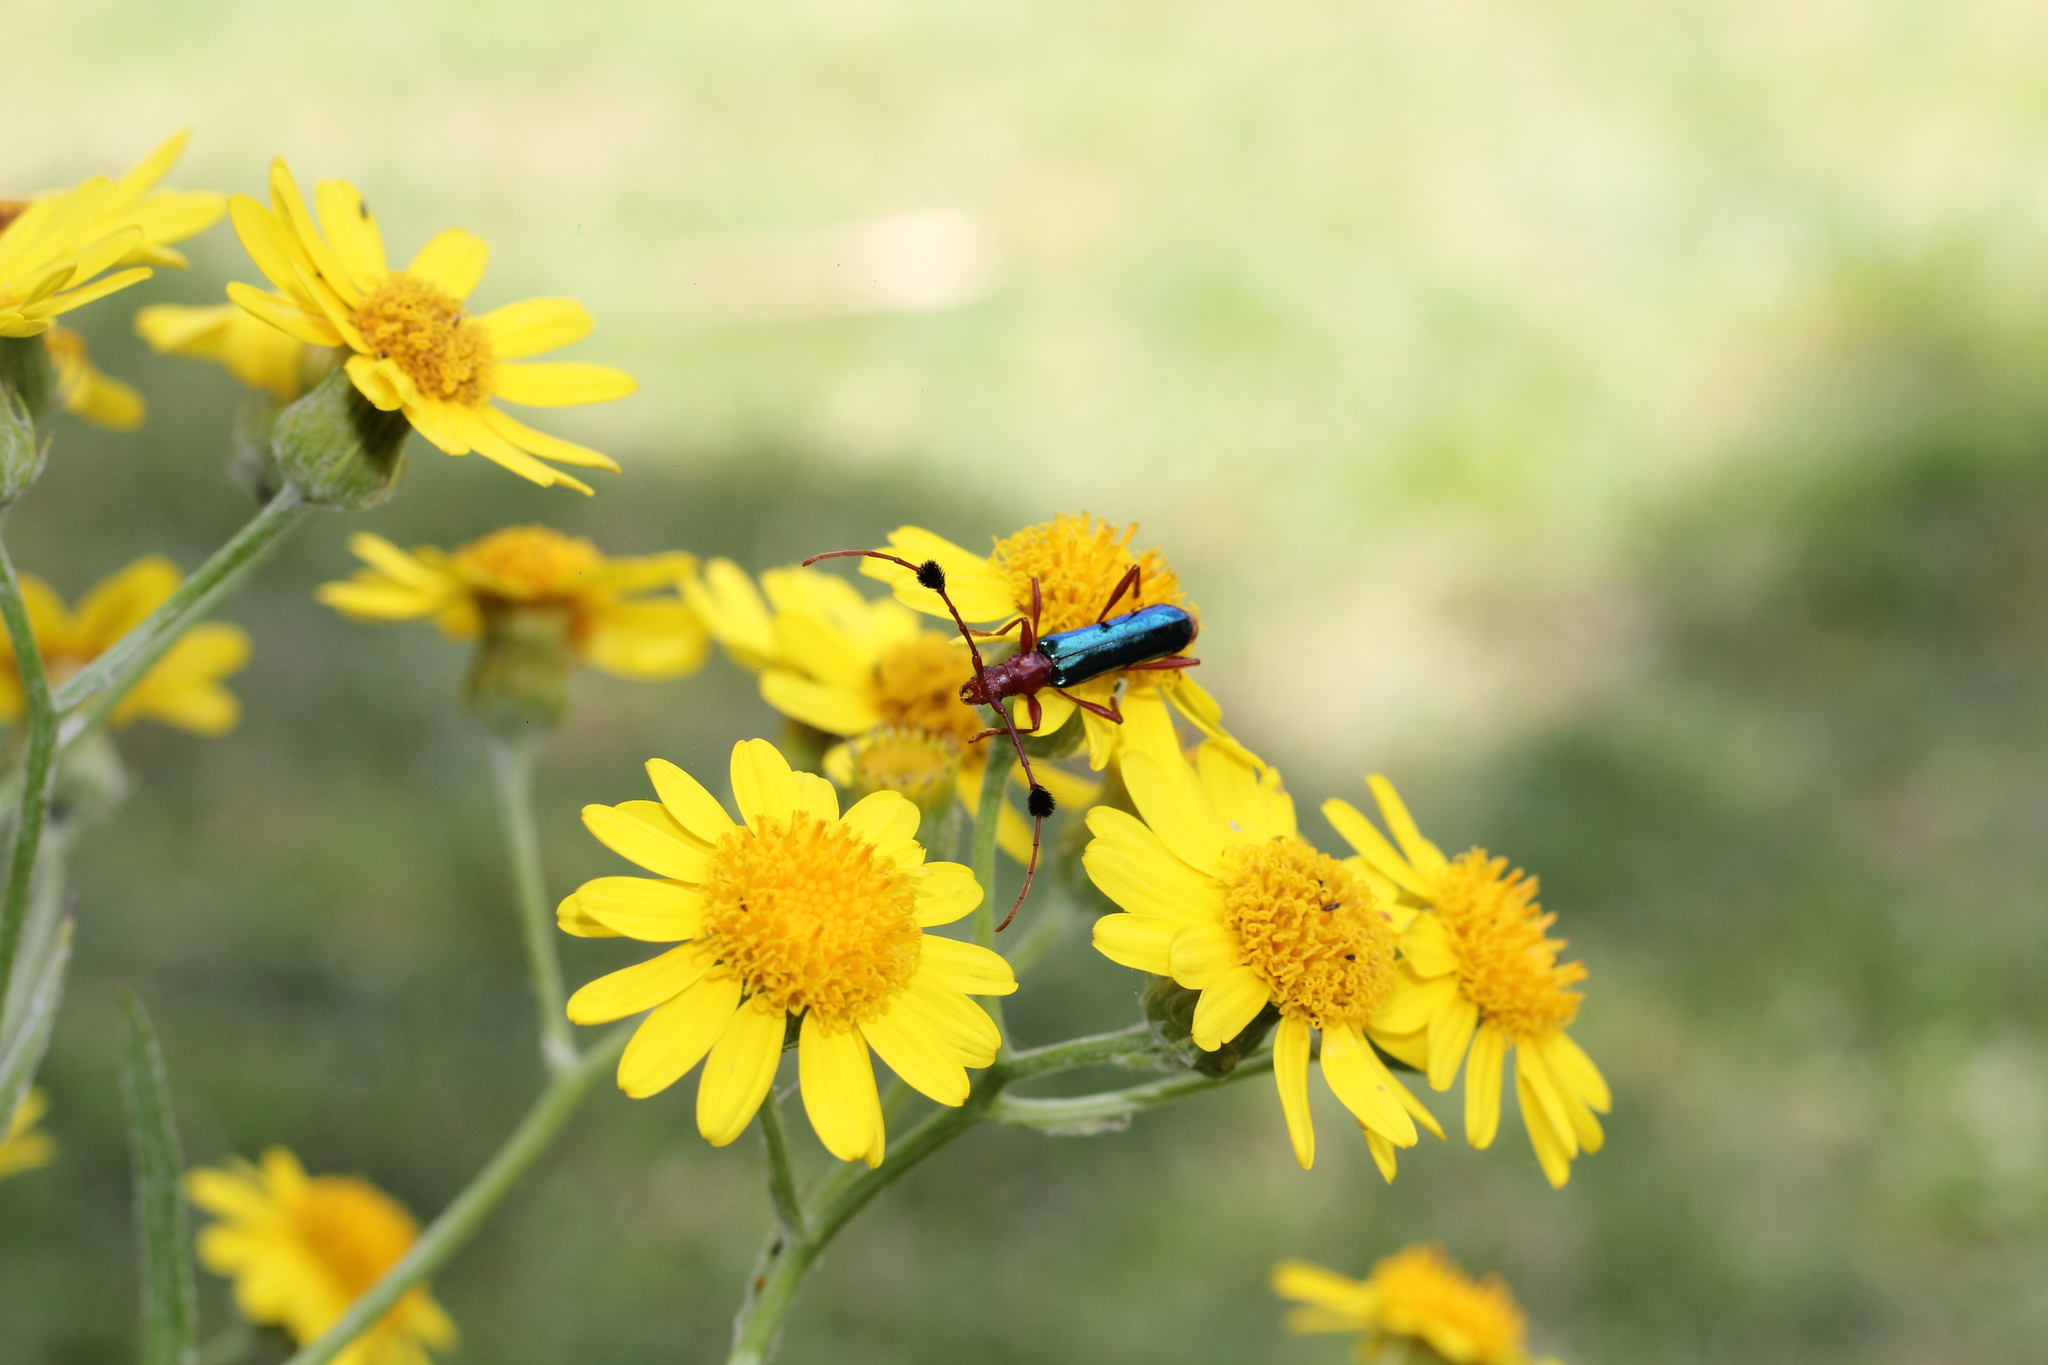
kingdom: Animalia
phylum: Arthropoda
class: Insecta
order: Coleoptera
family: Cerambycidae
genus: Paromoeocerus
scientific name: Paromoeocerus barbicornis
